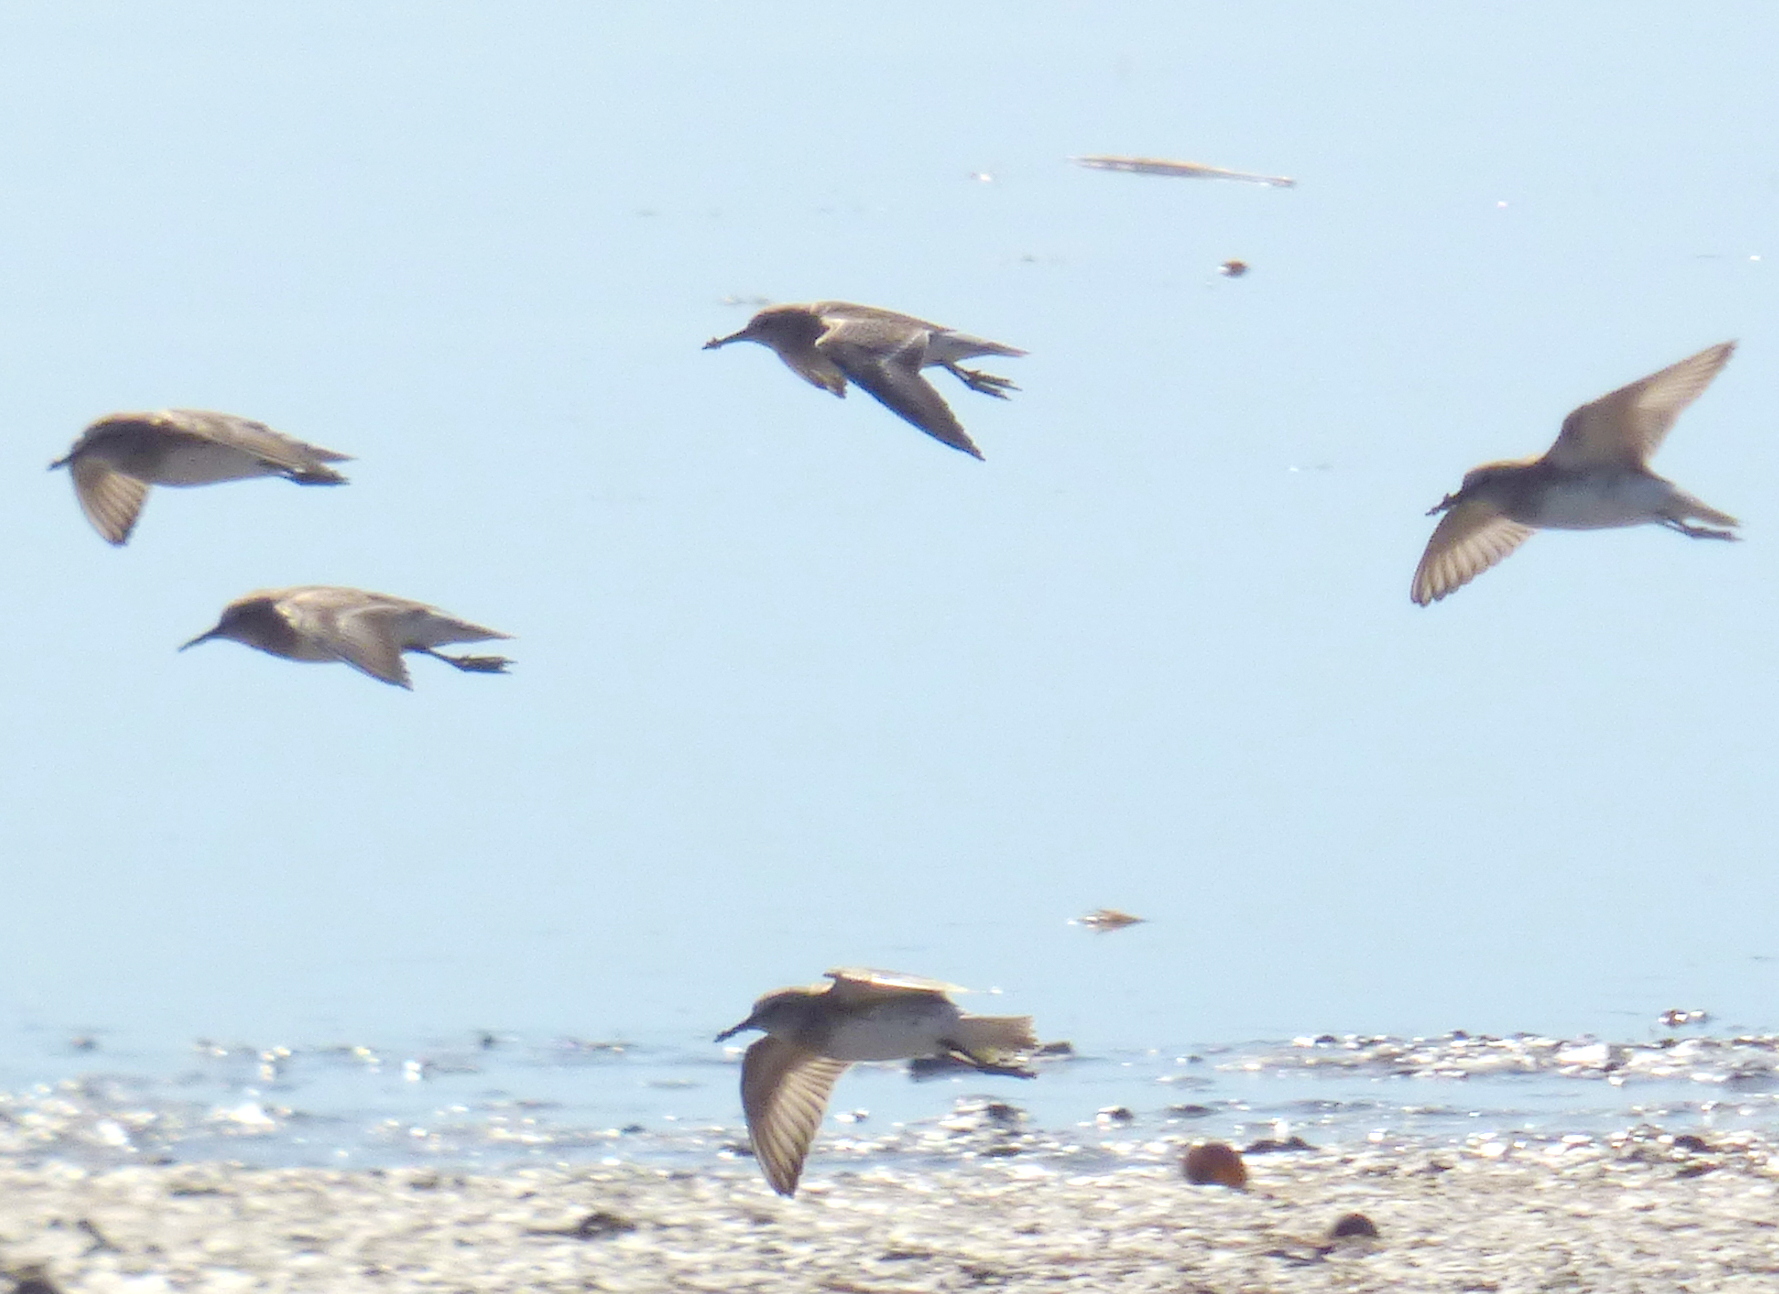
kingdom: Animalia
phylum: Chordata
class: Aves
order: Charadriiformes
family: Scolopacidae
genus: Calidris
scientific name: Calidris fuscicollis
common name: White-rumped sandpiper
